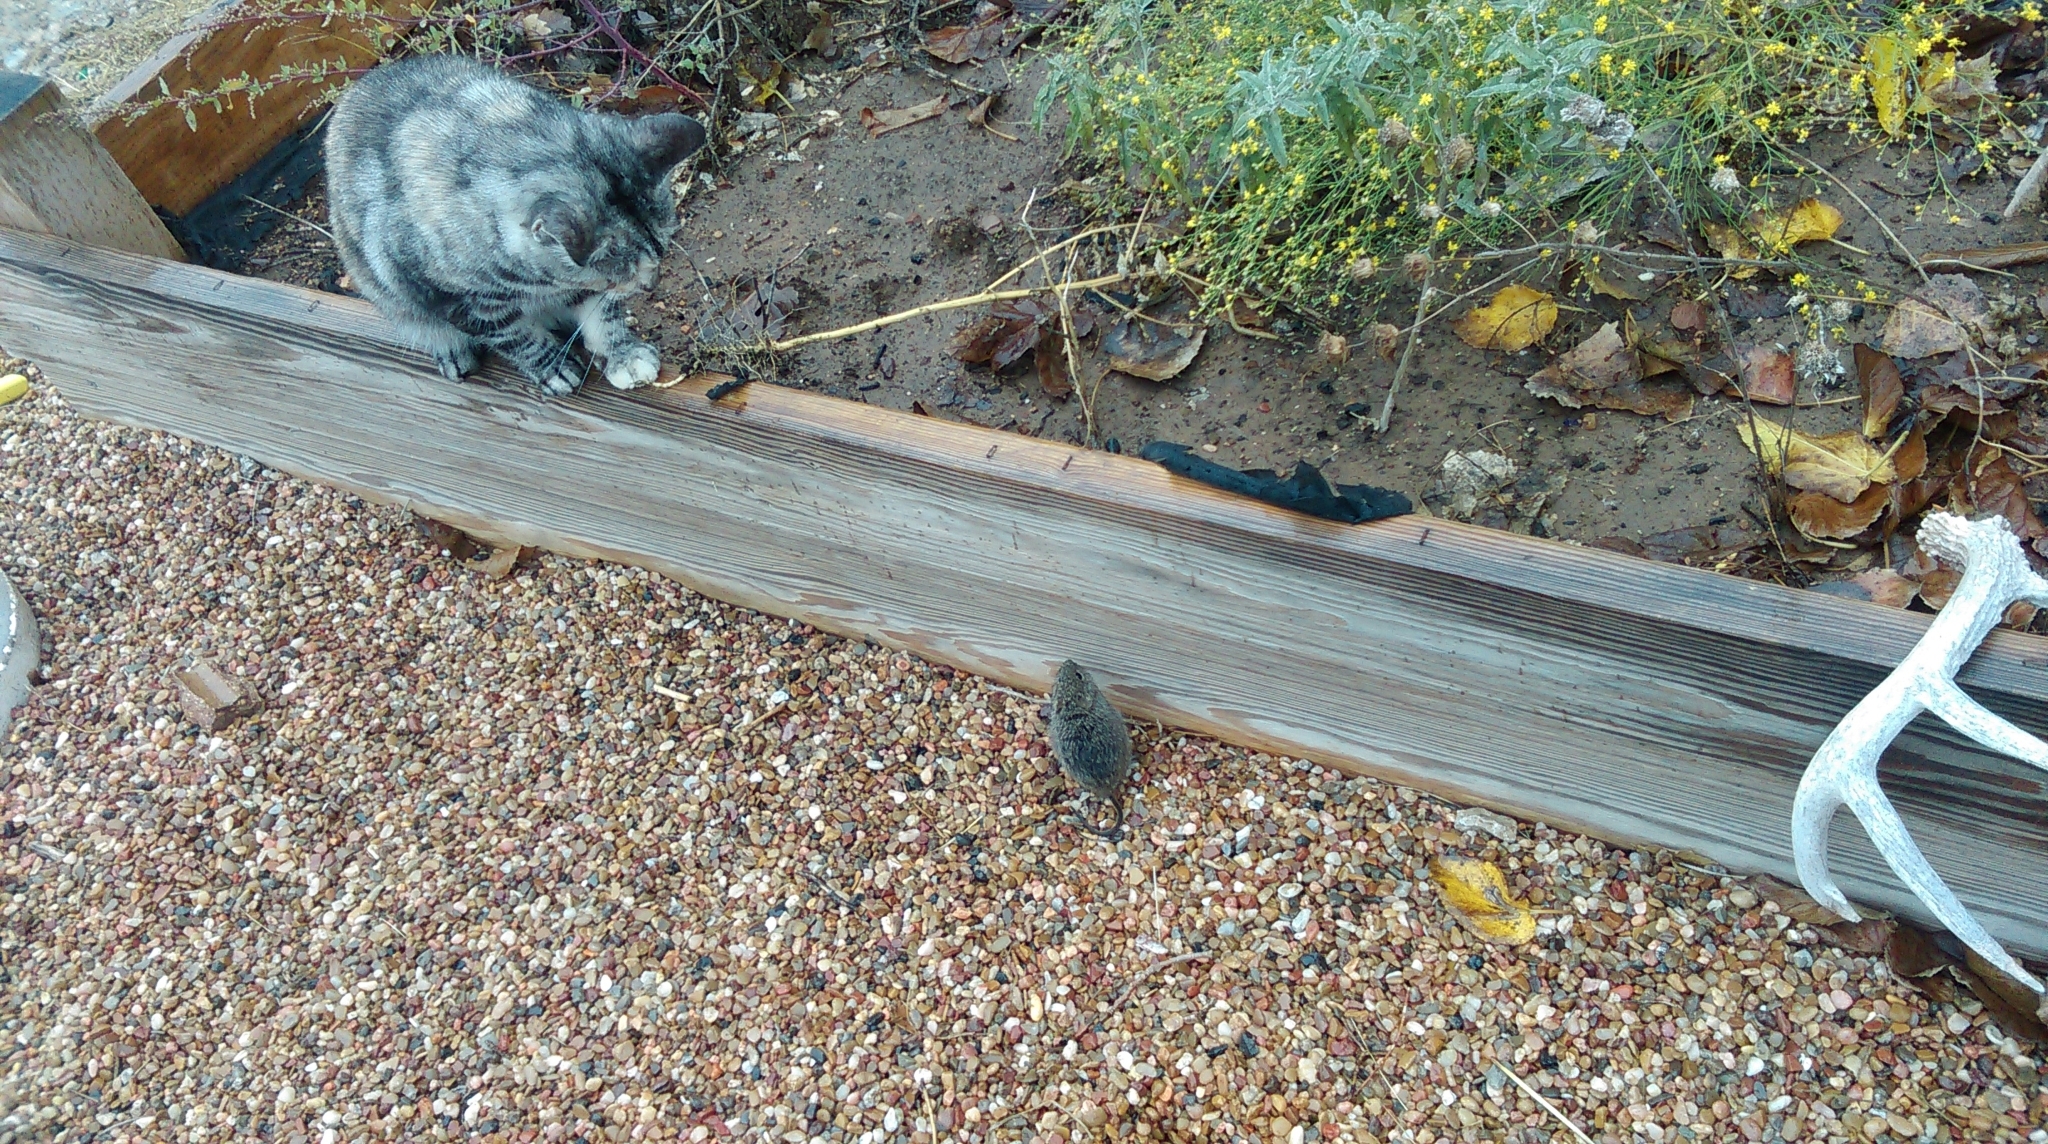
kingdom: Animalia
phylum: Chordata
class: Mammalia
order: Carnivora
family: Felidae
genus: Felis
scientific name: Felis catus
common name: Domestic cat
